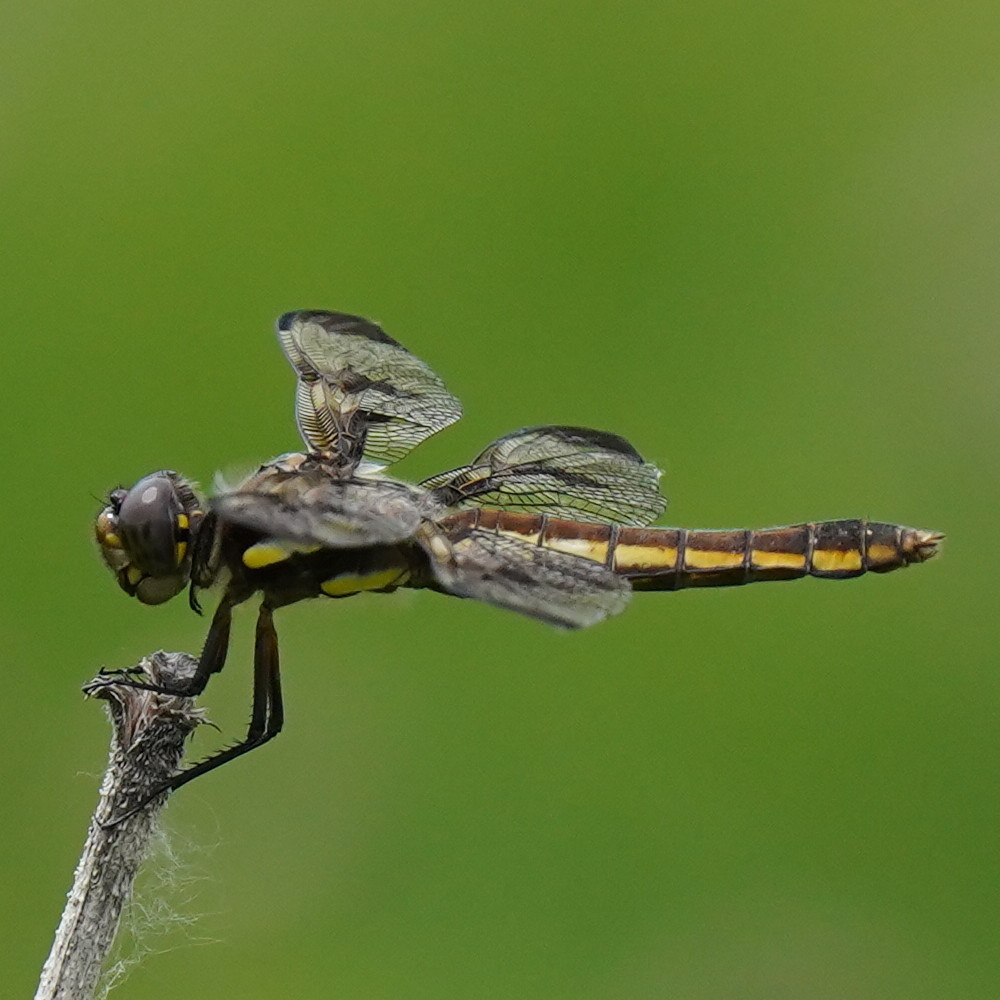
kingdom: Animalia
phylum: Arthropoda
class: Insecta
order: Odonata
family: Libellulidae
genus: Libellula
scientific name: Libellula pulchella
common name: Twelve-spotted skimmer
